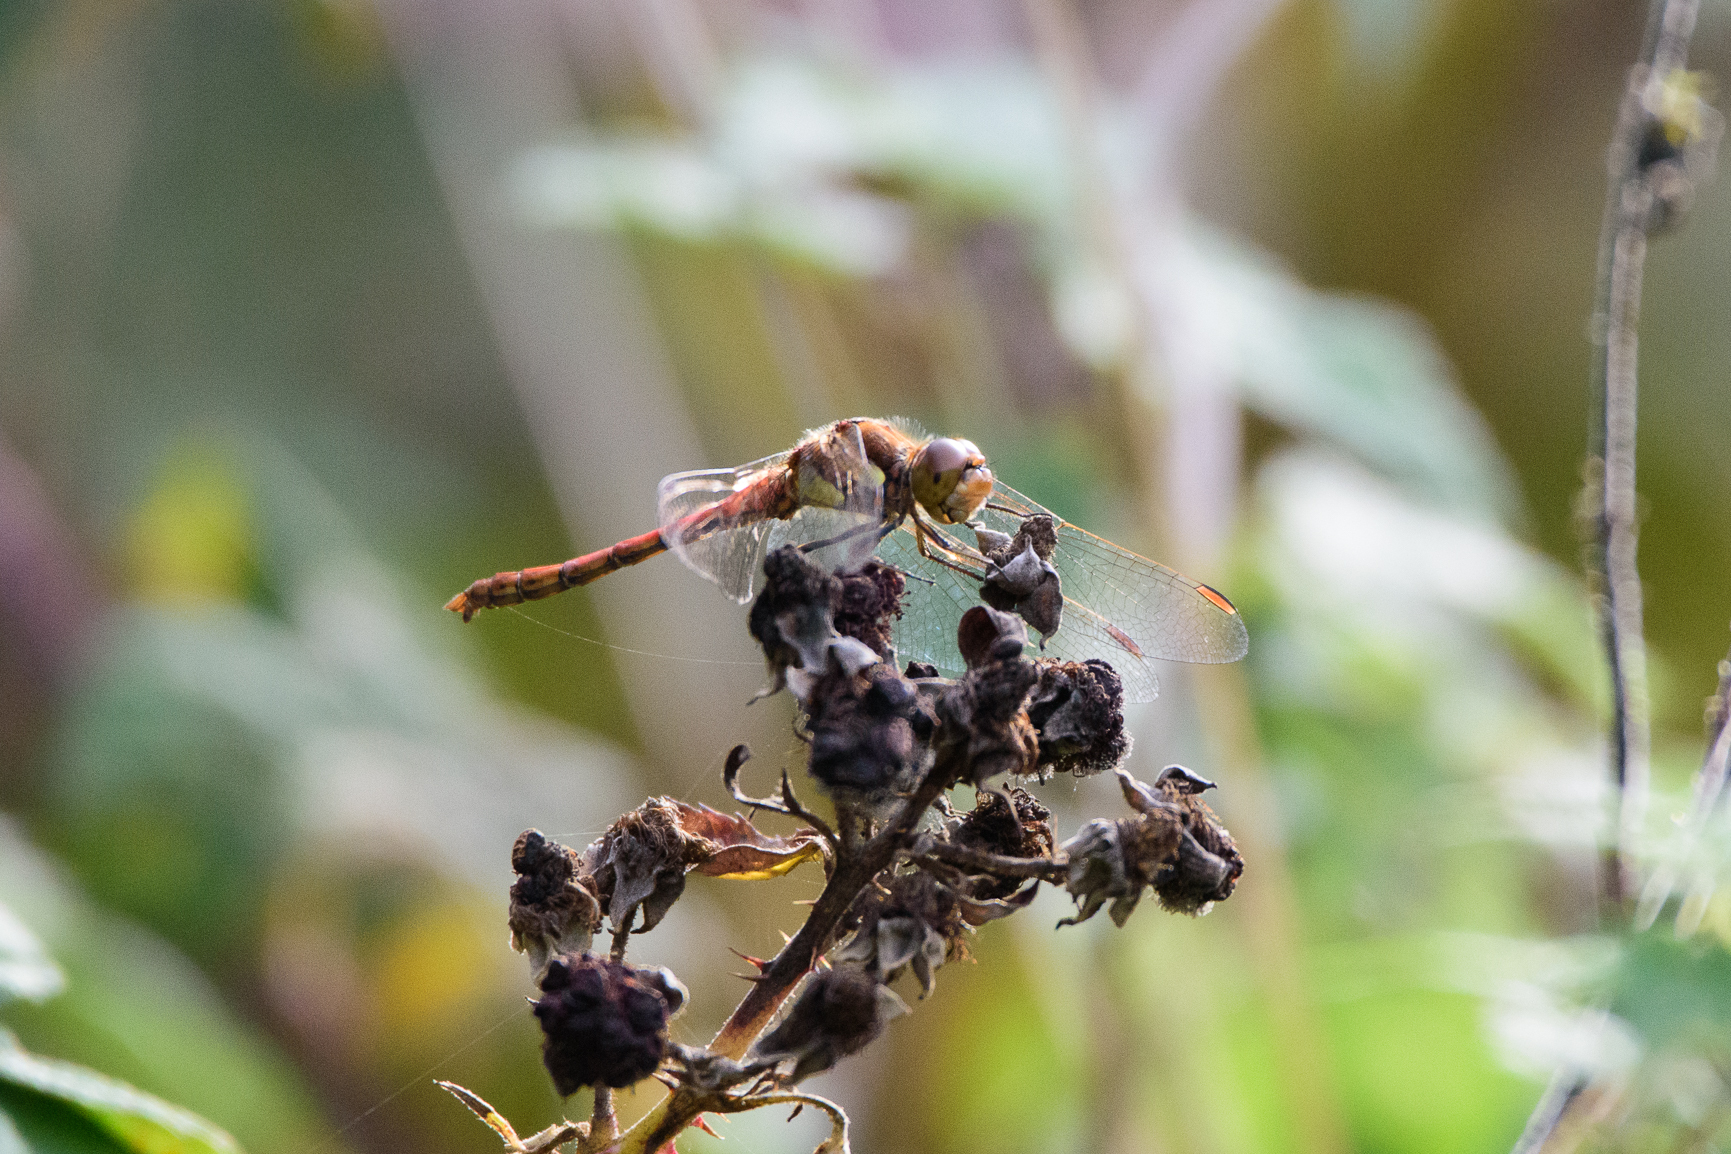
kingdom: Animalia
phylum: Arthropoda
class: Insecta
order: Odonata
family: Libellulidae
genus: Sympetrum
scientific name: Sympetrum striolatum
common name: Common darter
